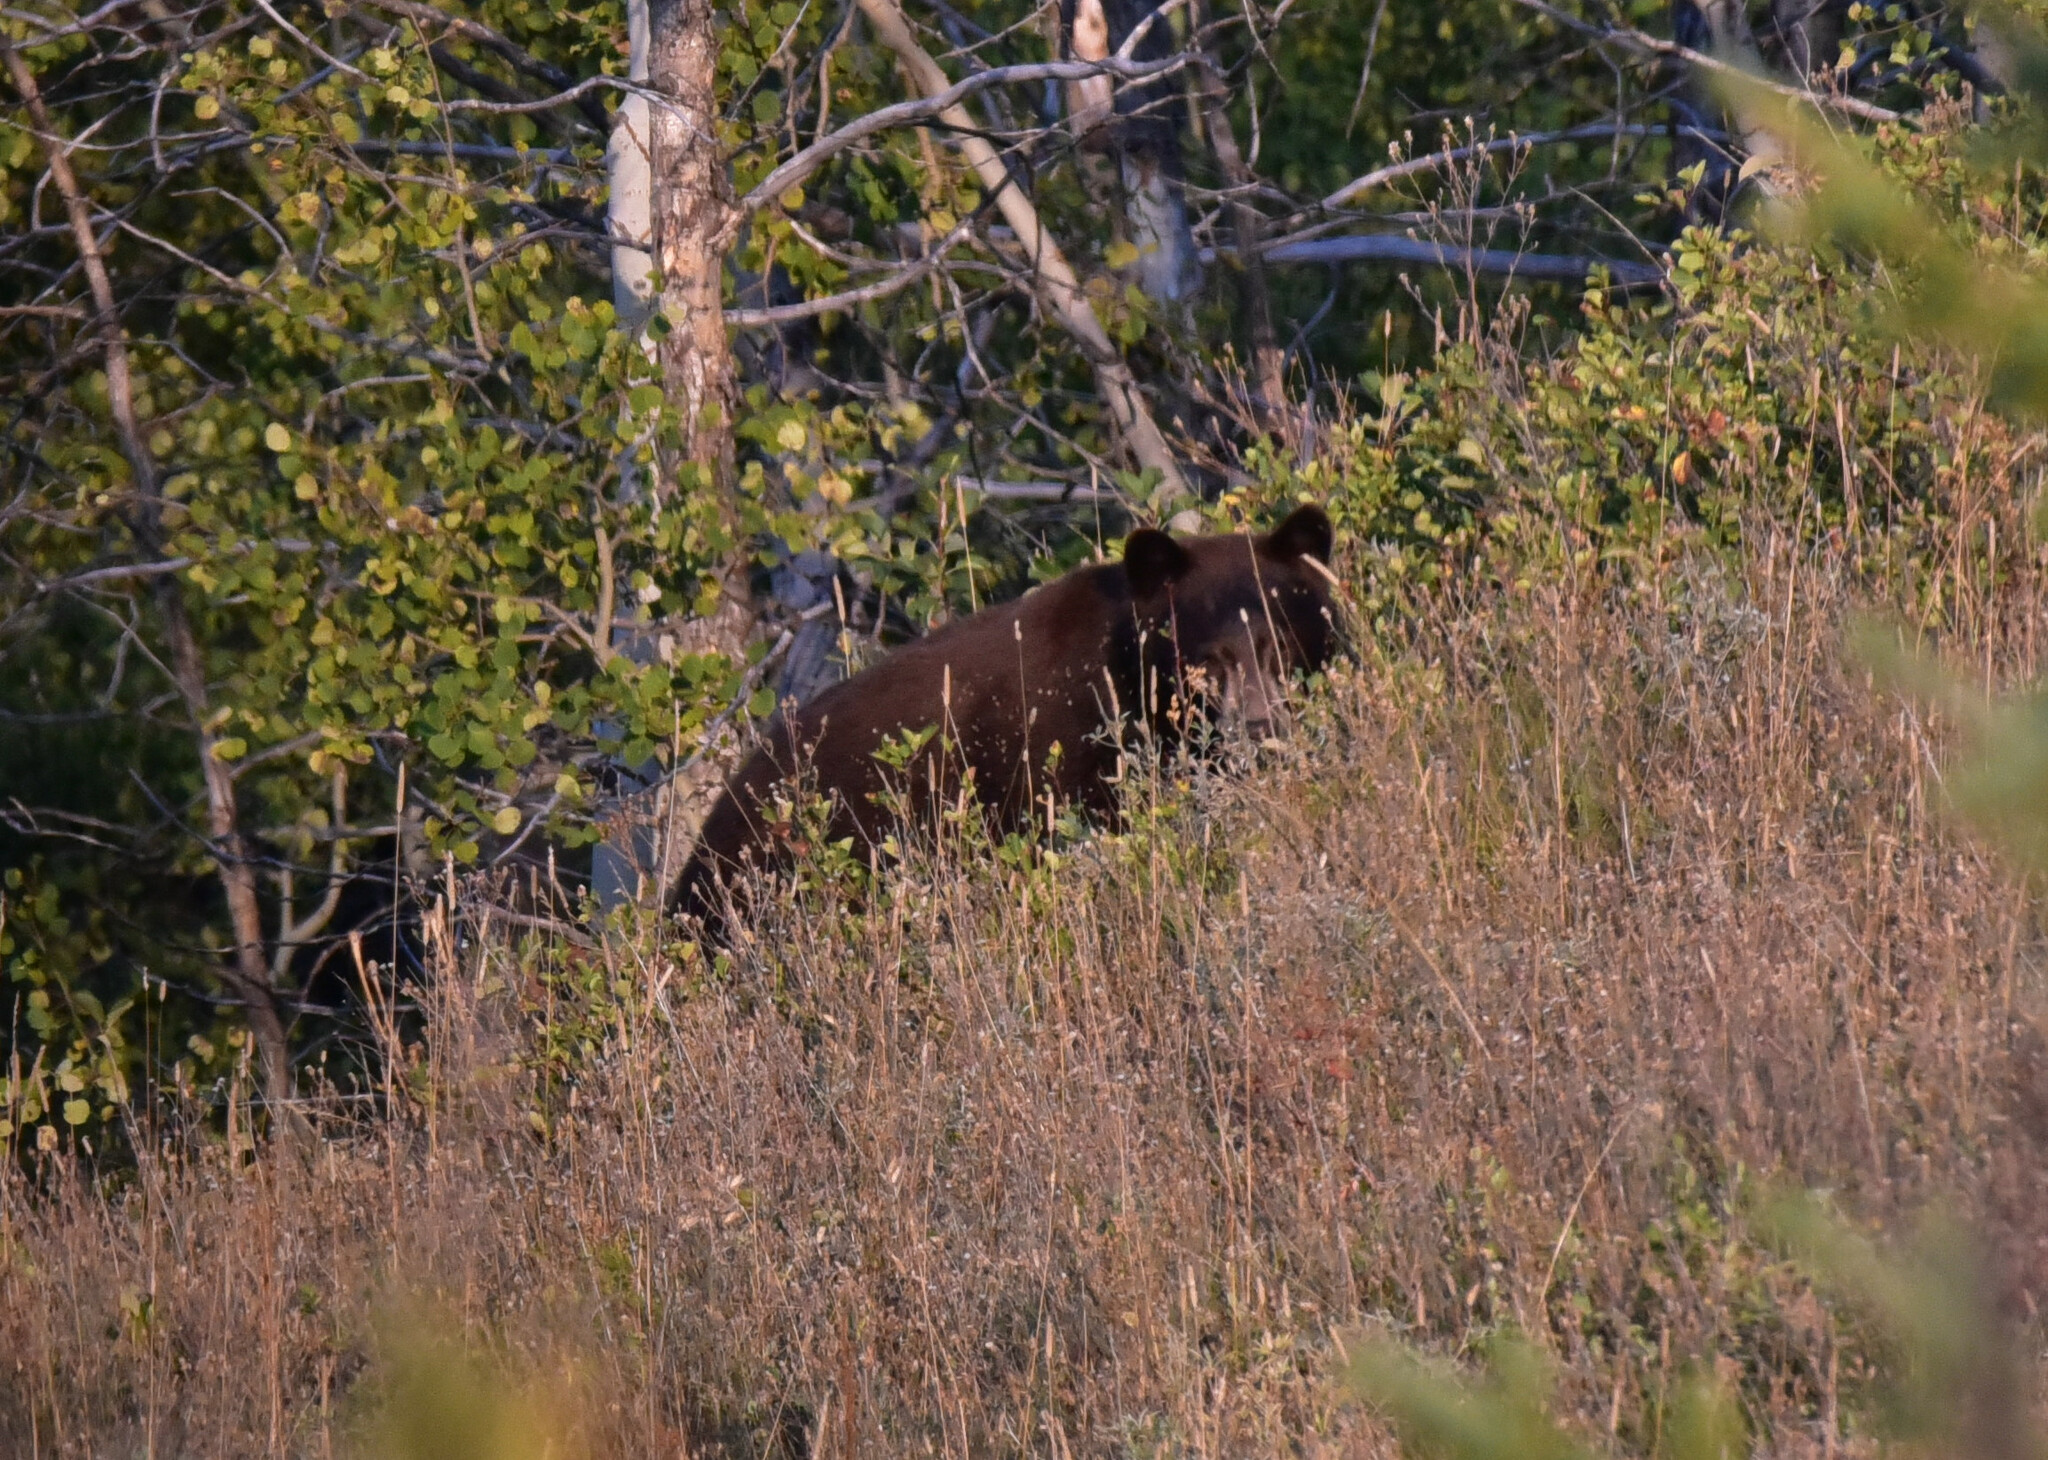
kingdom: Animalia
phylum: Chordata
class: Mammalia
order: Carnivora
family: Ursidae
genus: Ursus
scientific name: Ursus americanus
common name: American black bear
